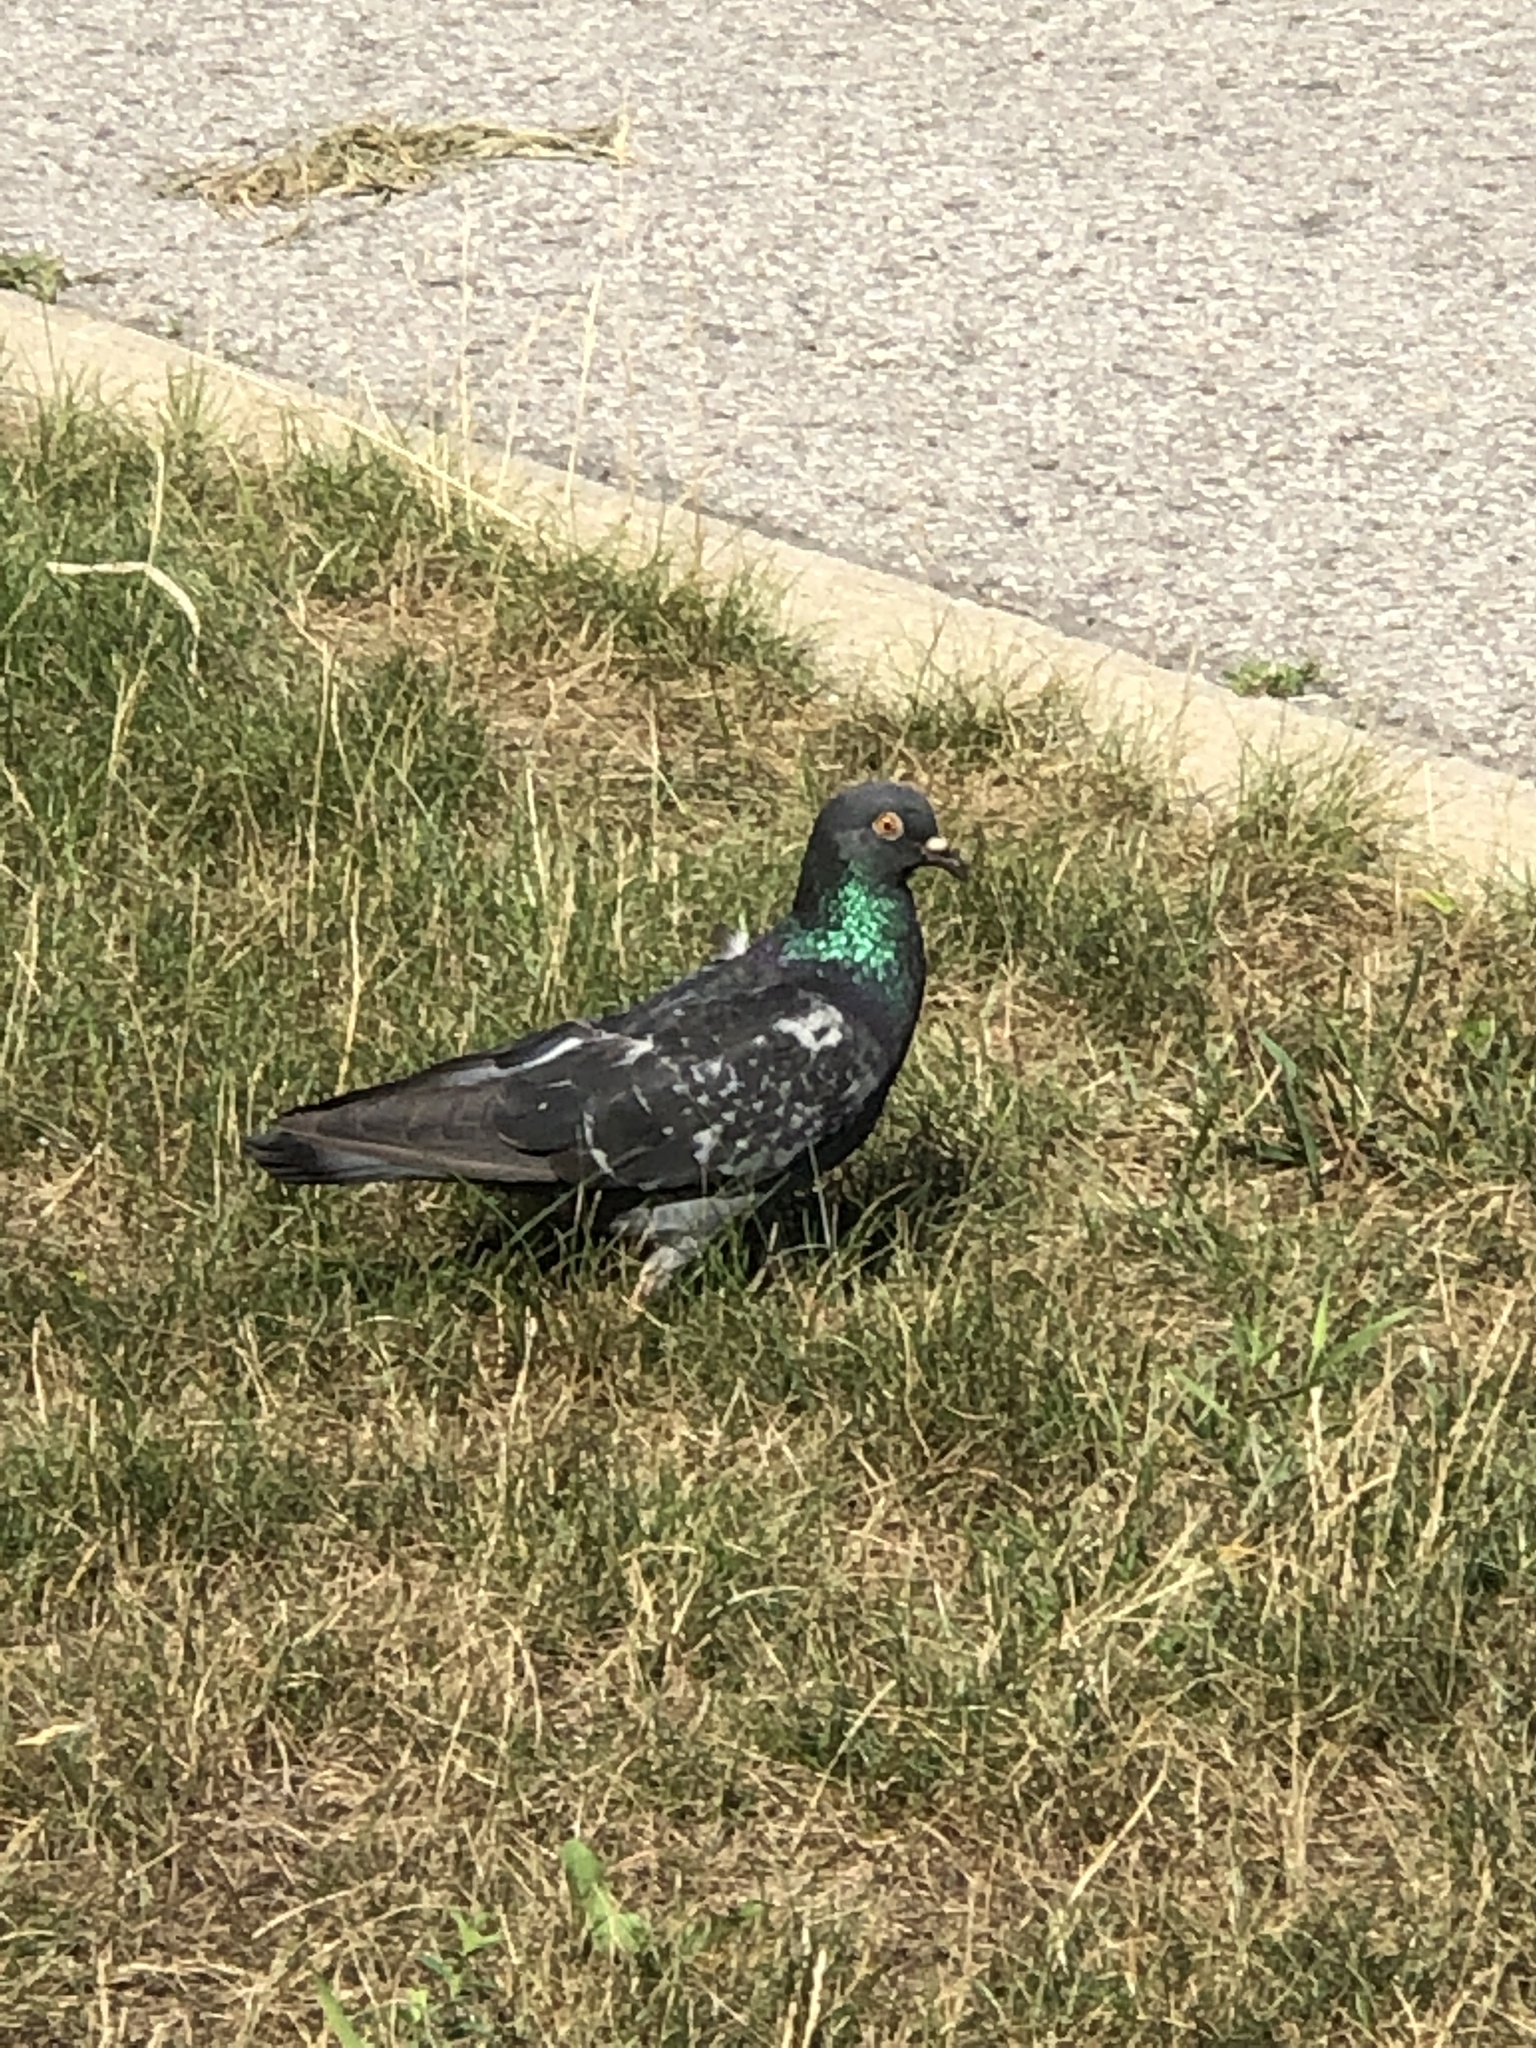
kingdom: Animalia
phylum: Chordata
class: Aves
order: Columbiformes
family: Columbidae
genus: Columba
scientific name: Columba livia
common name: Rock pigeon
